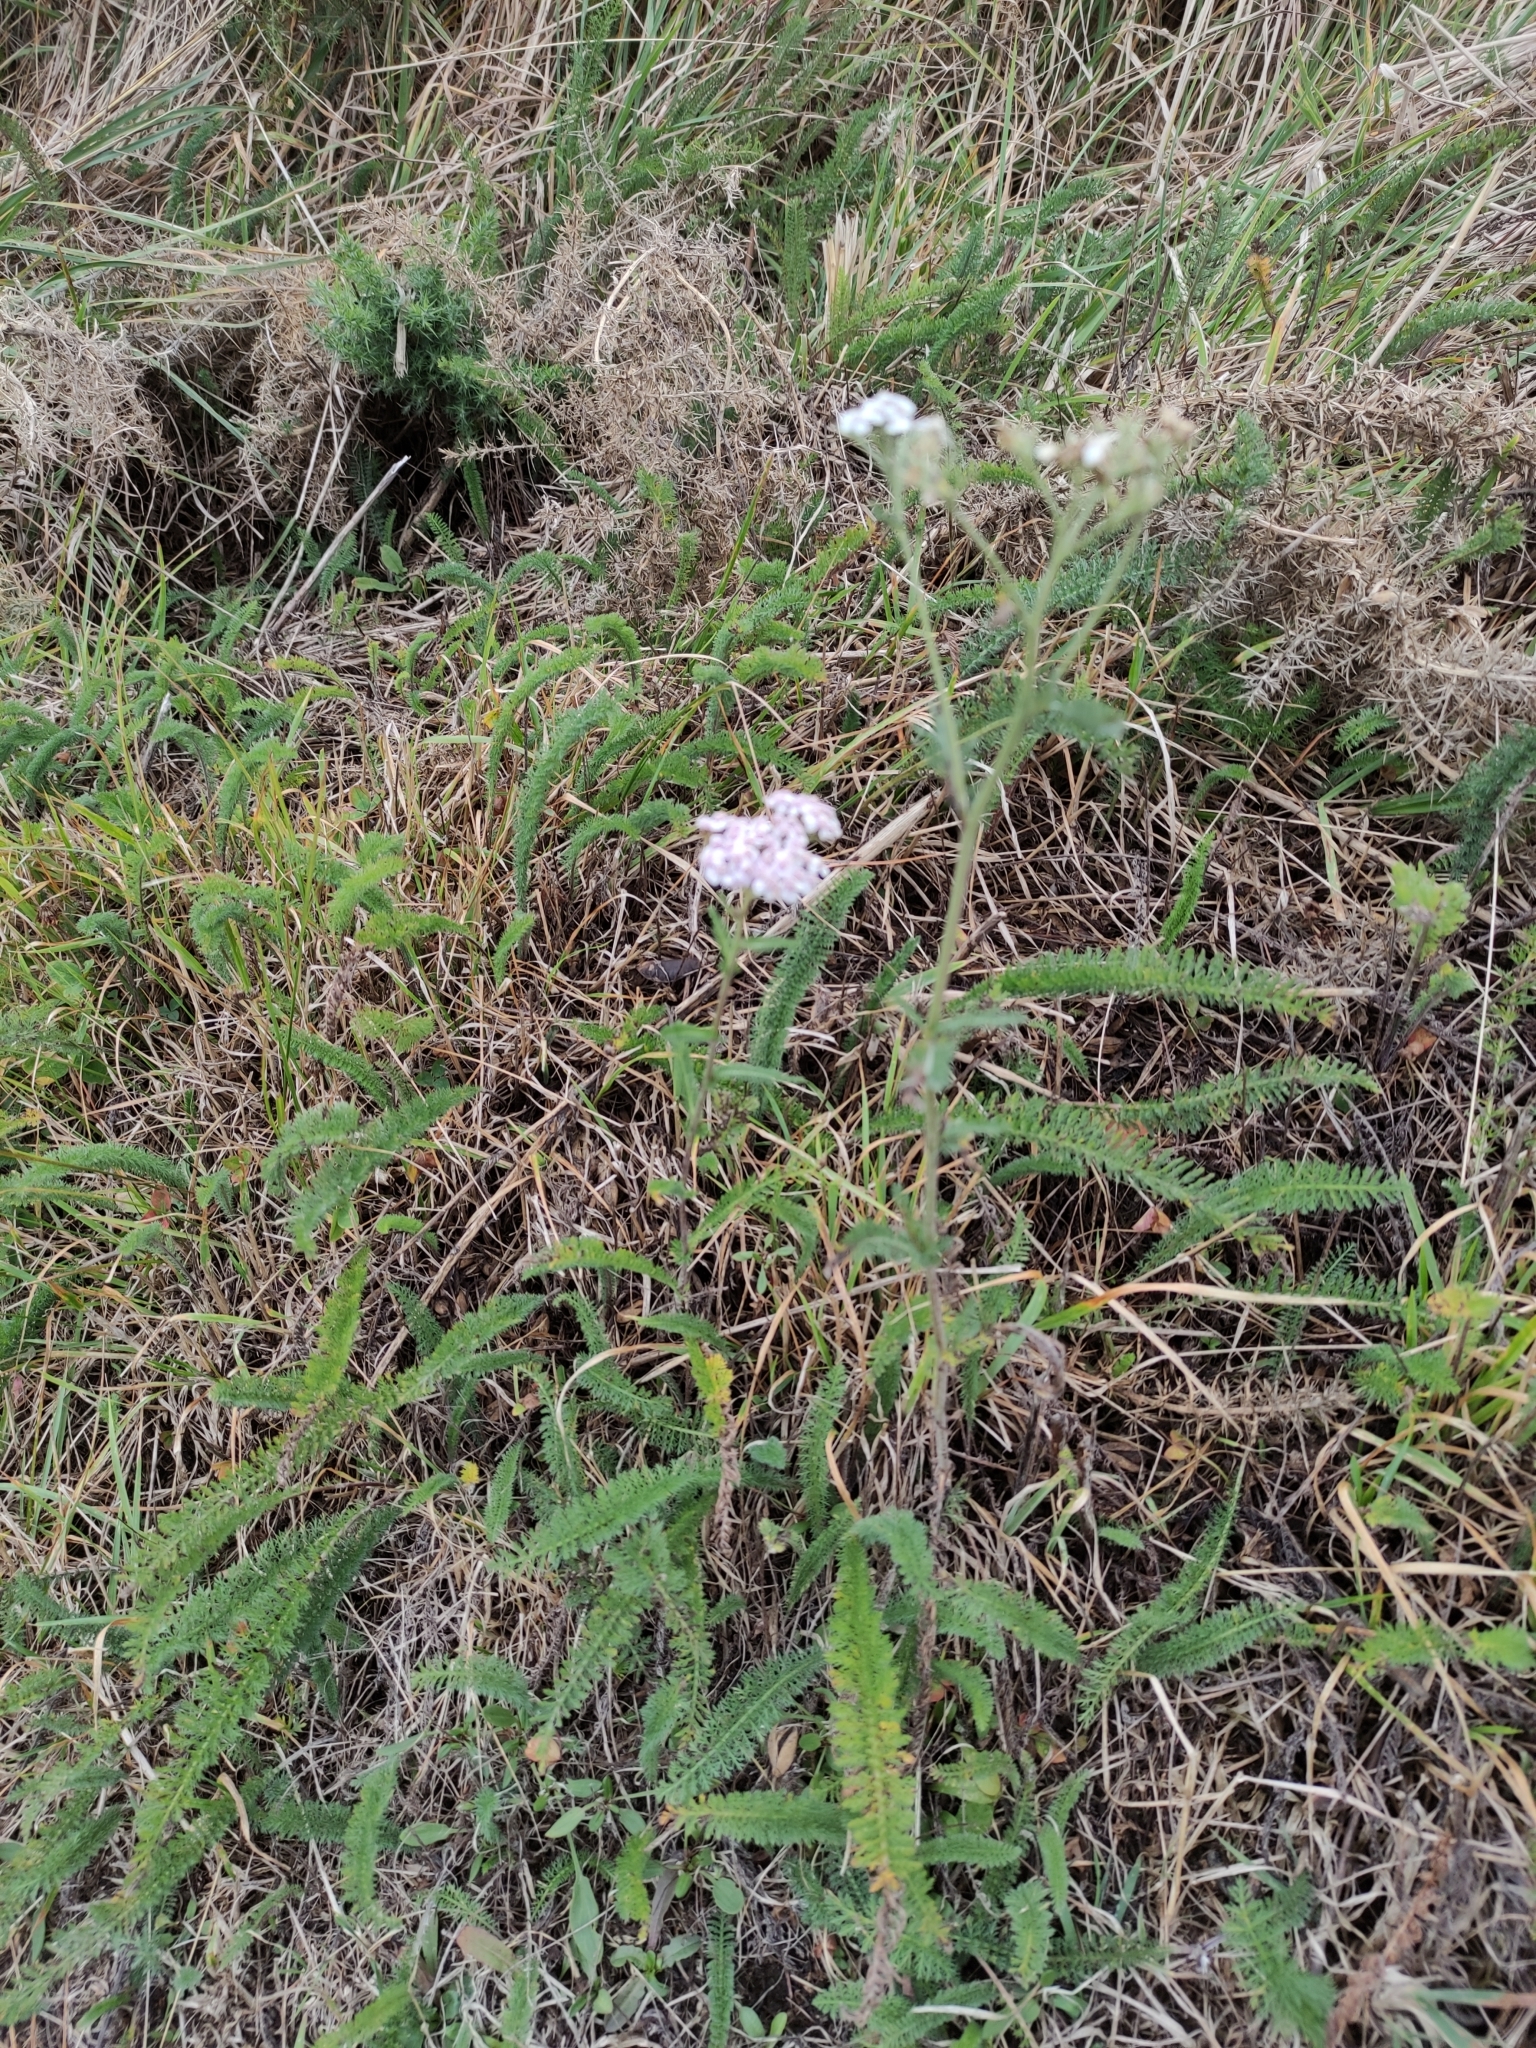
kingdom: Plantae
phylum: Tracheophyta
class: Magnoliopsida
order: Asterales
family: Asteraceae
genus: Achillea
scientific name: Achillea millefolium
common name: Yarrow
